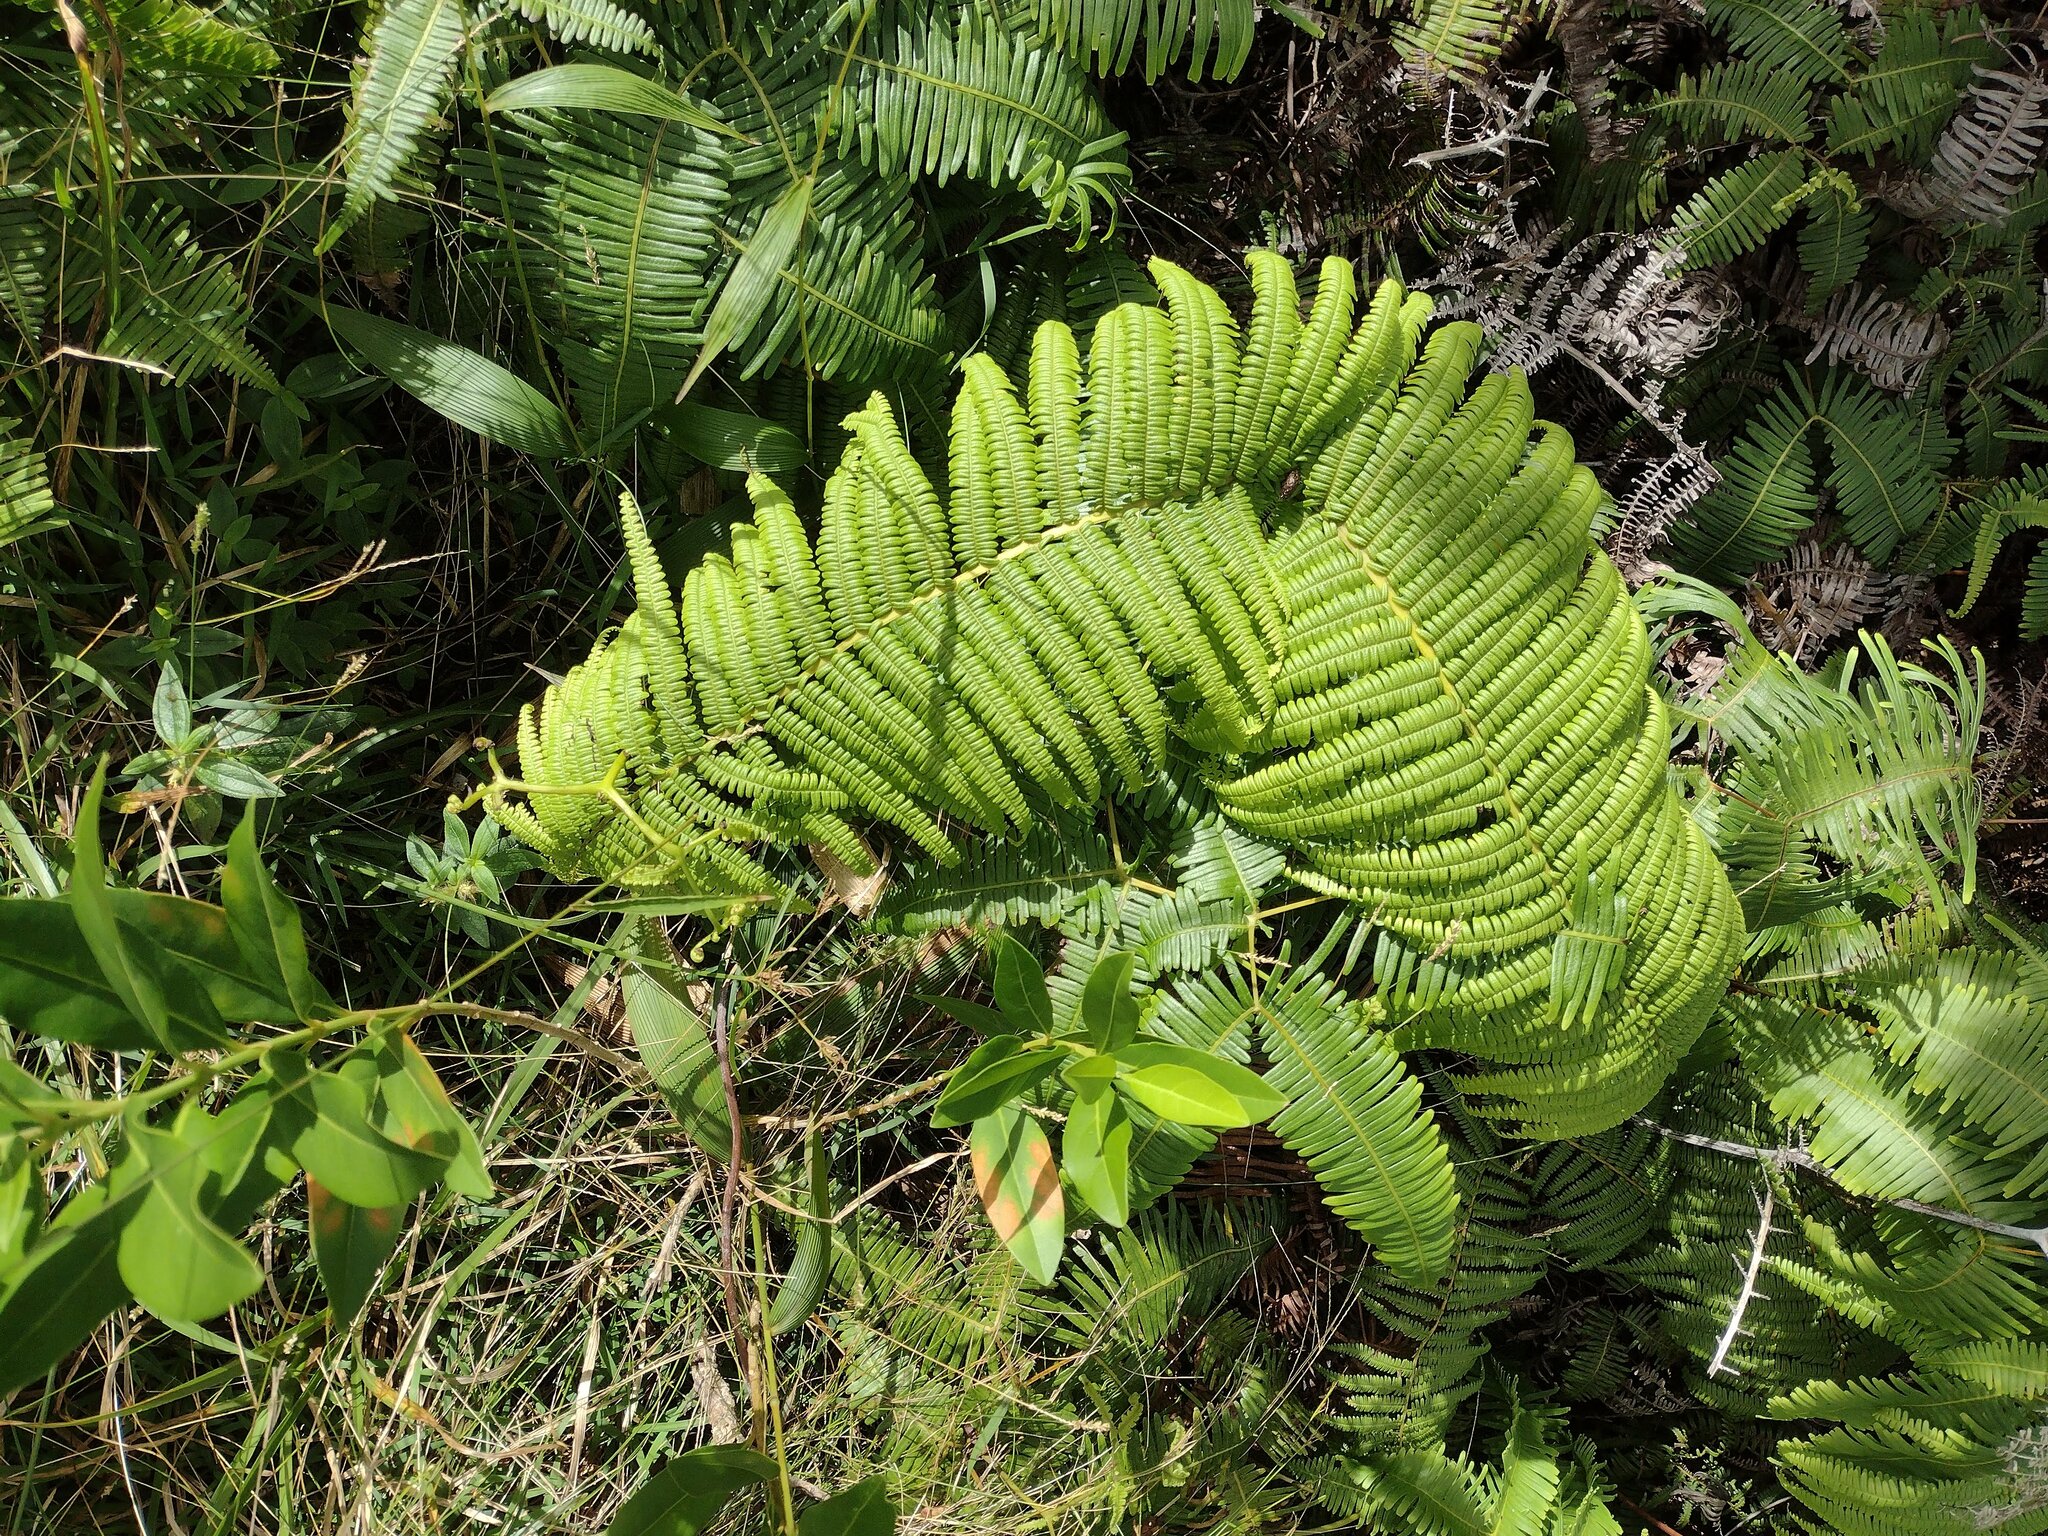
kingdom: Plantae
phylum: Tracheophyta
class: Polypodiopsida
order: Gleicheniales
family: Gleicheniaceae
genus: Diplopterygium
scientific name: Diplopterygium pinnatum
